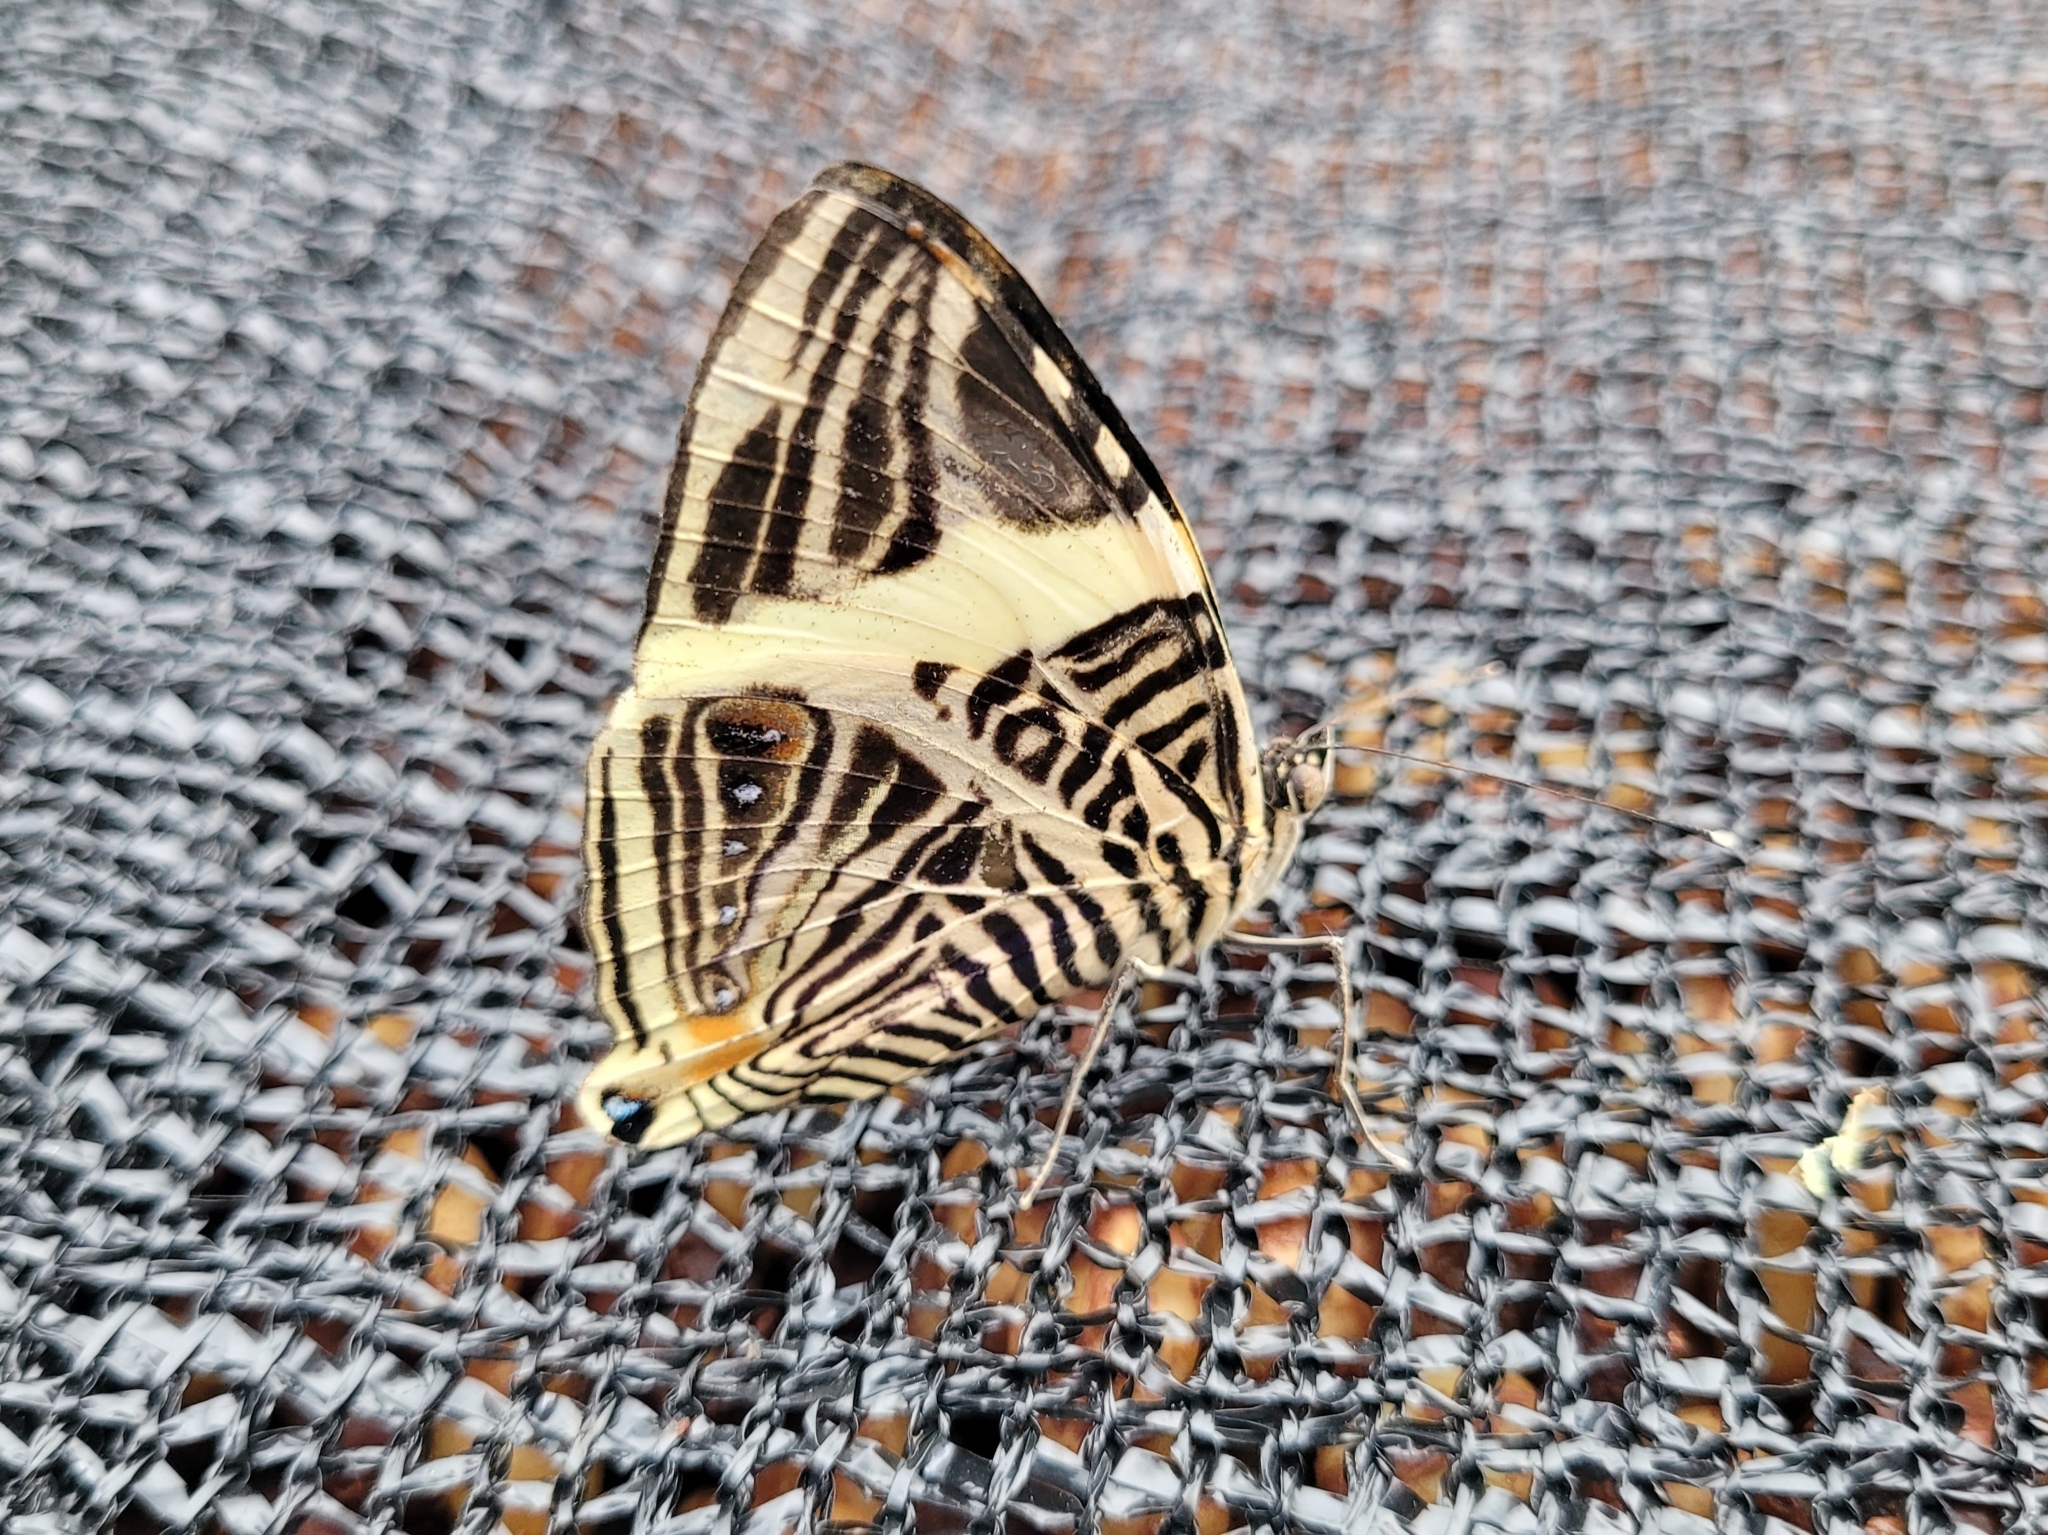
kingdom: Animalia
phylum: Arthropoda
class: Insecta
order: Lepidoptera
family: Nymphalidae
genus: Colobura
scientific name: Colobura dirce
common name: Dirce beauty
